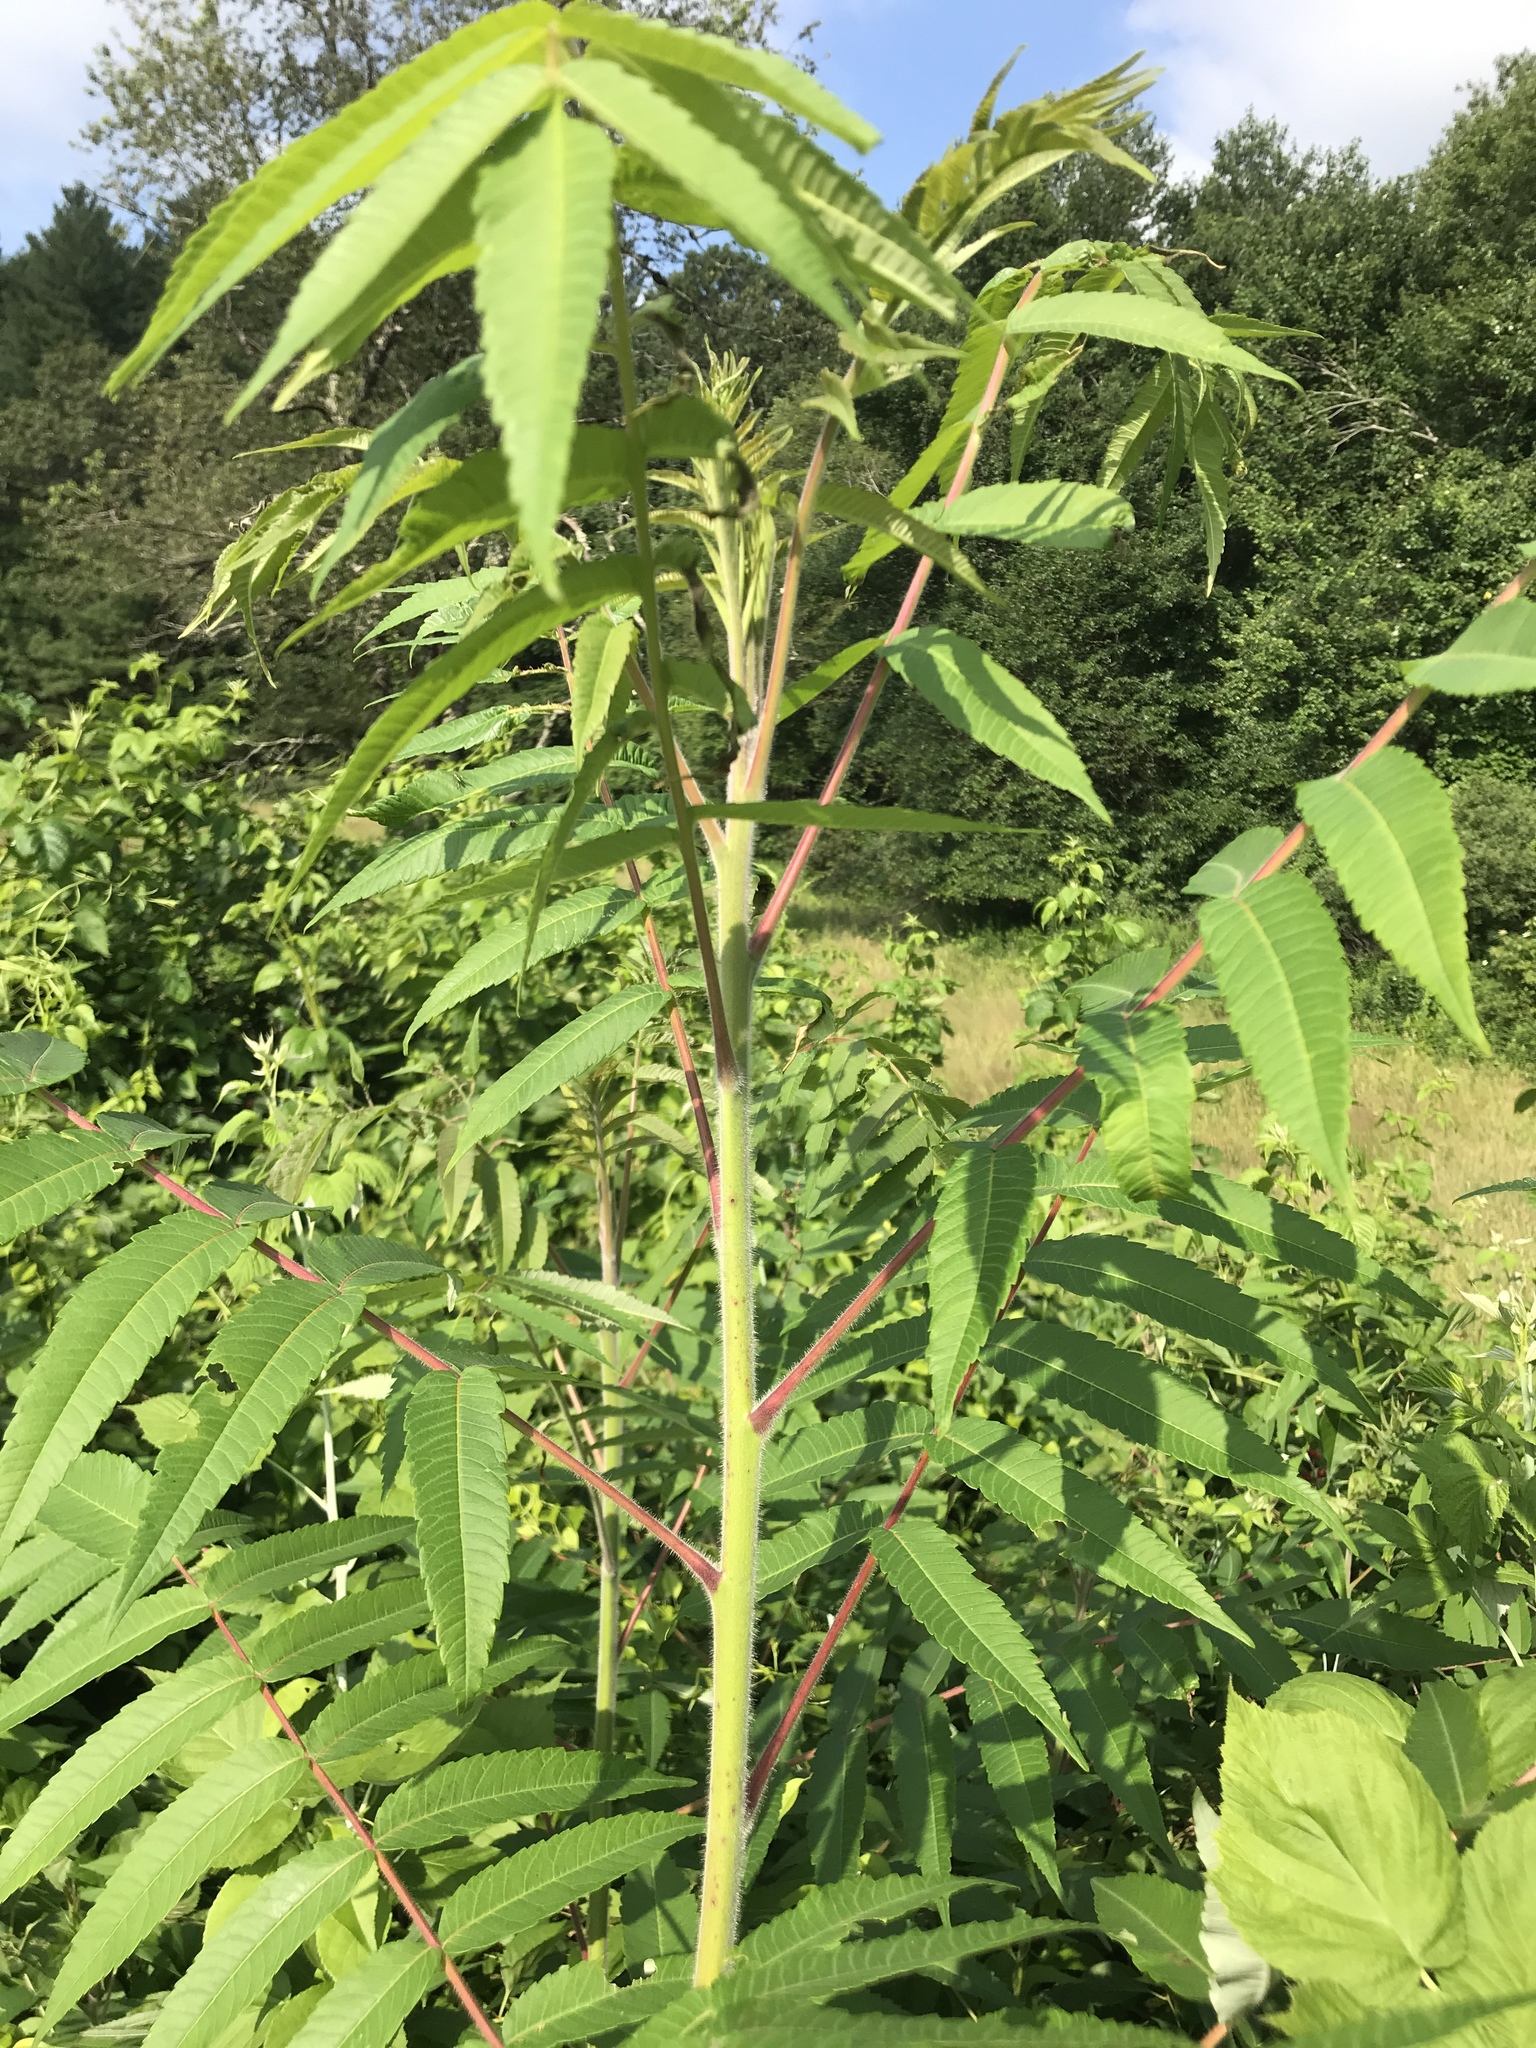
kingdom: Plantae
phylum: Tracheophyta
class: Magnoliopsida
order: Sapindales
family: Anacardiaceae
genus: Rhus
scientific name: Rhus typhina
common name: Staghorn sumac
